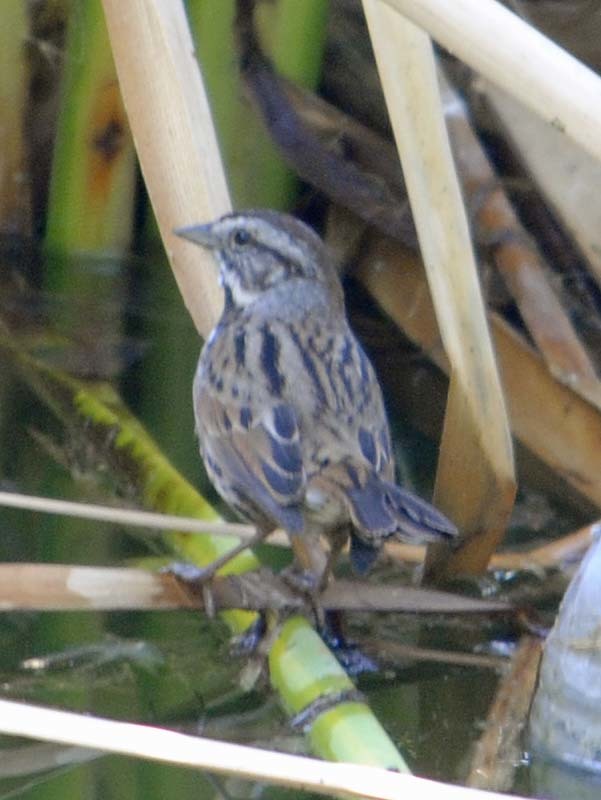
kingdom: Animalia
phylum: Chordata
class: Aves
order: Passeriformes
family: Passerellidae
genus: Melospiza
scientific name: Melospiza melodia
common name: Song sparrow
